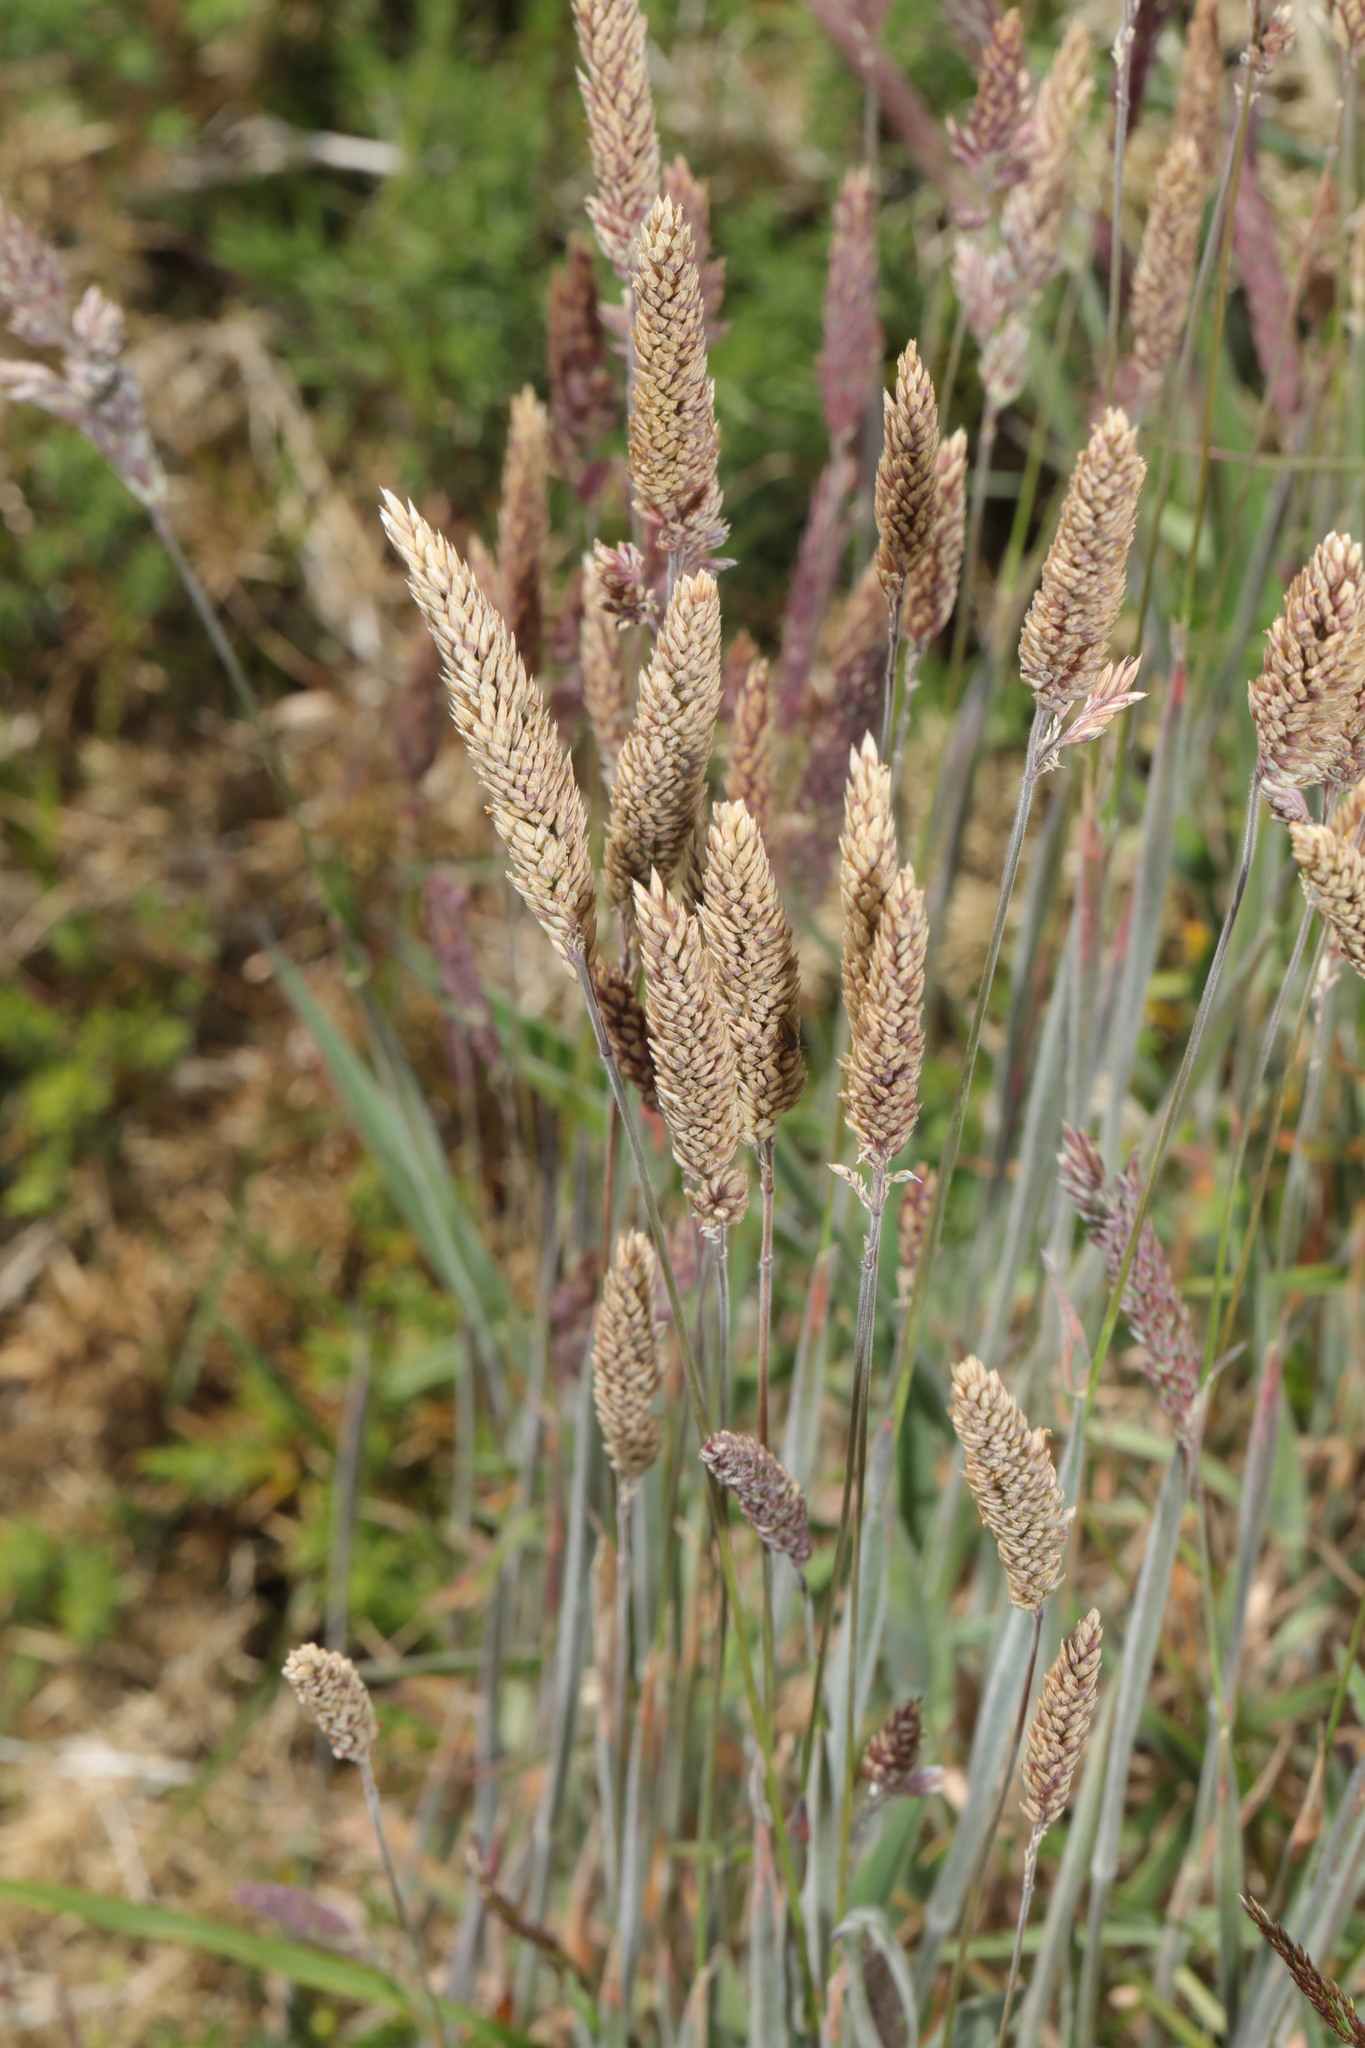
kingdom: Plantae
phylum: Tracheophyta
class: Liliopsida
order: Poales
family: Poaceae
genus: Holcus
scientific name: Holcus lanatus
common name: Yorkshire-fog
